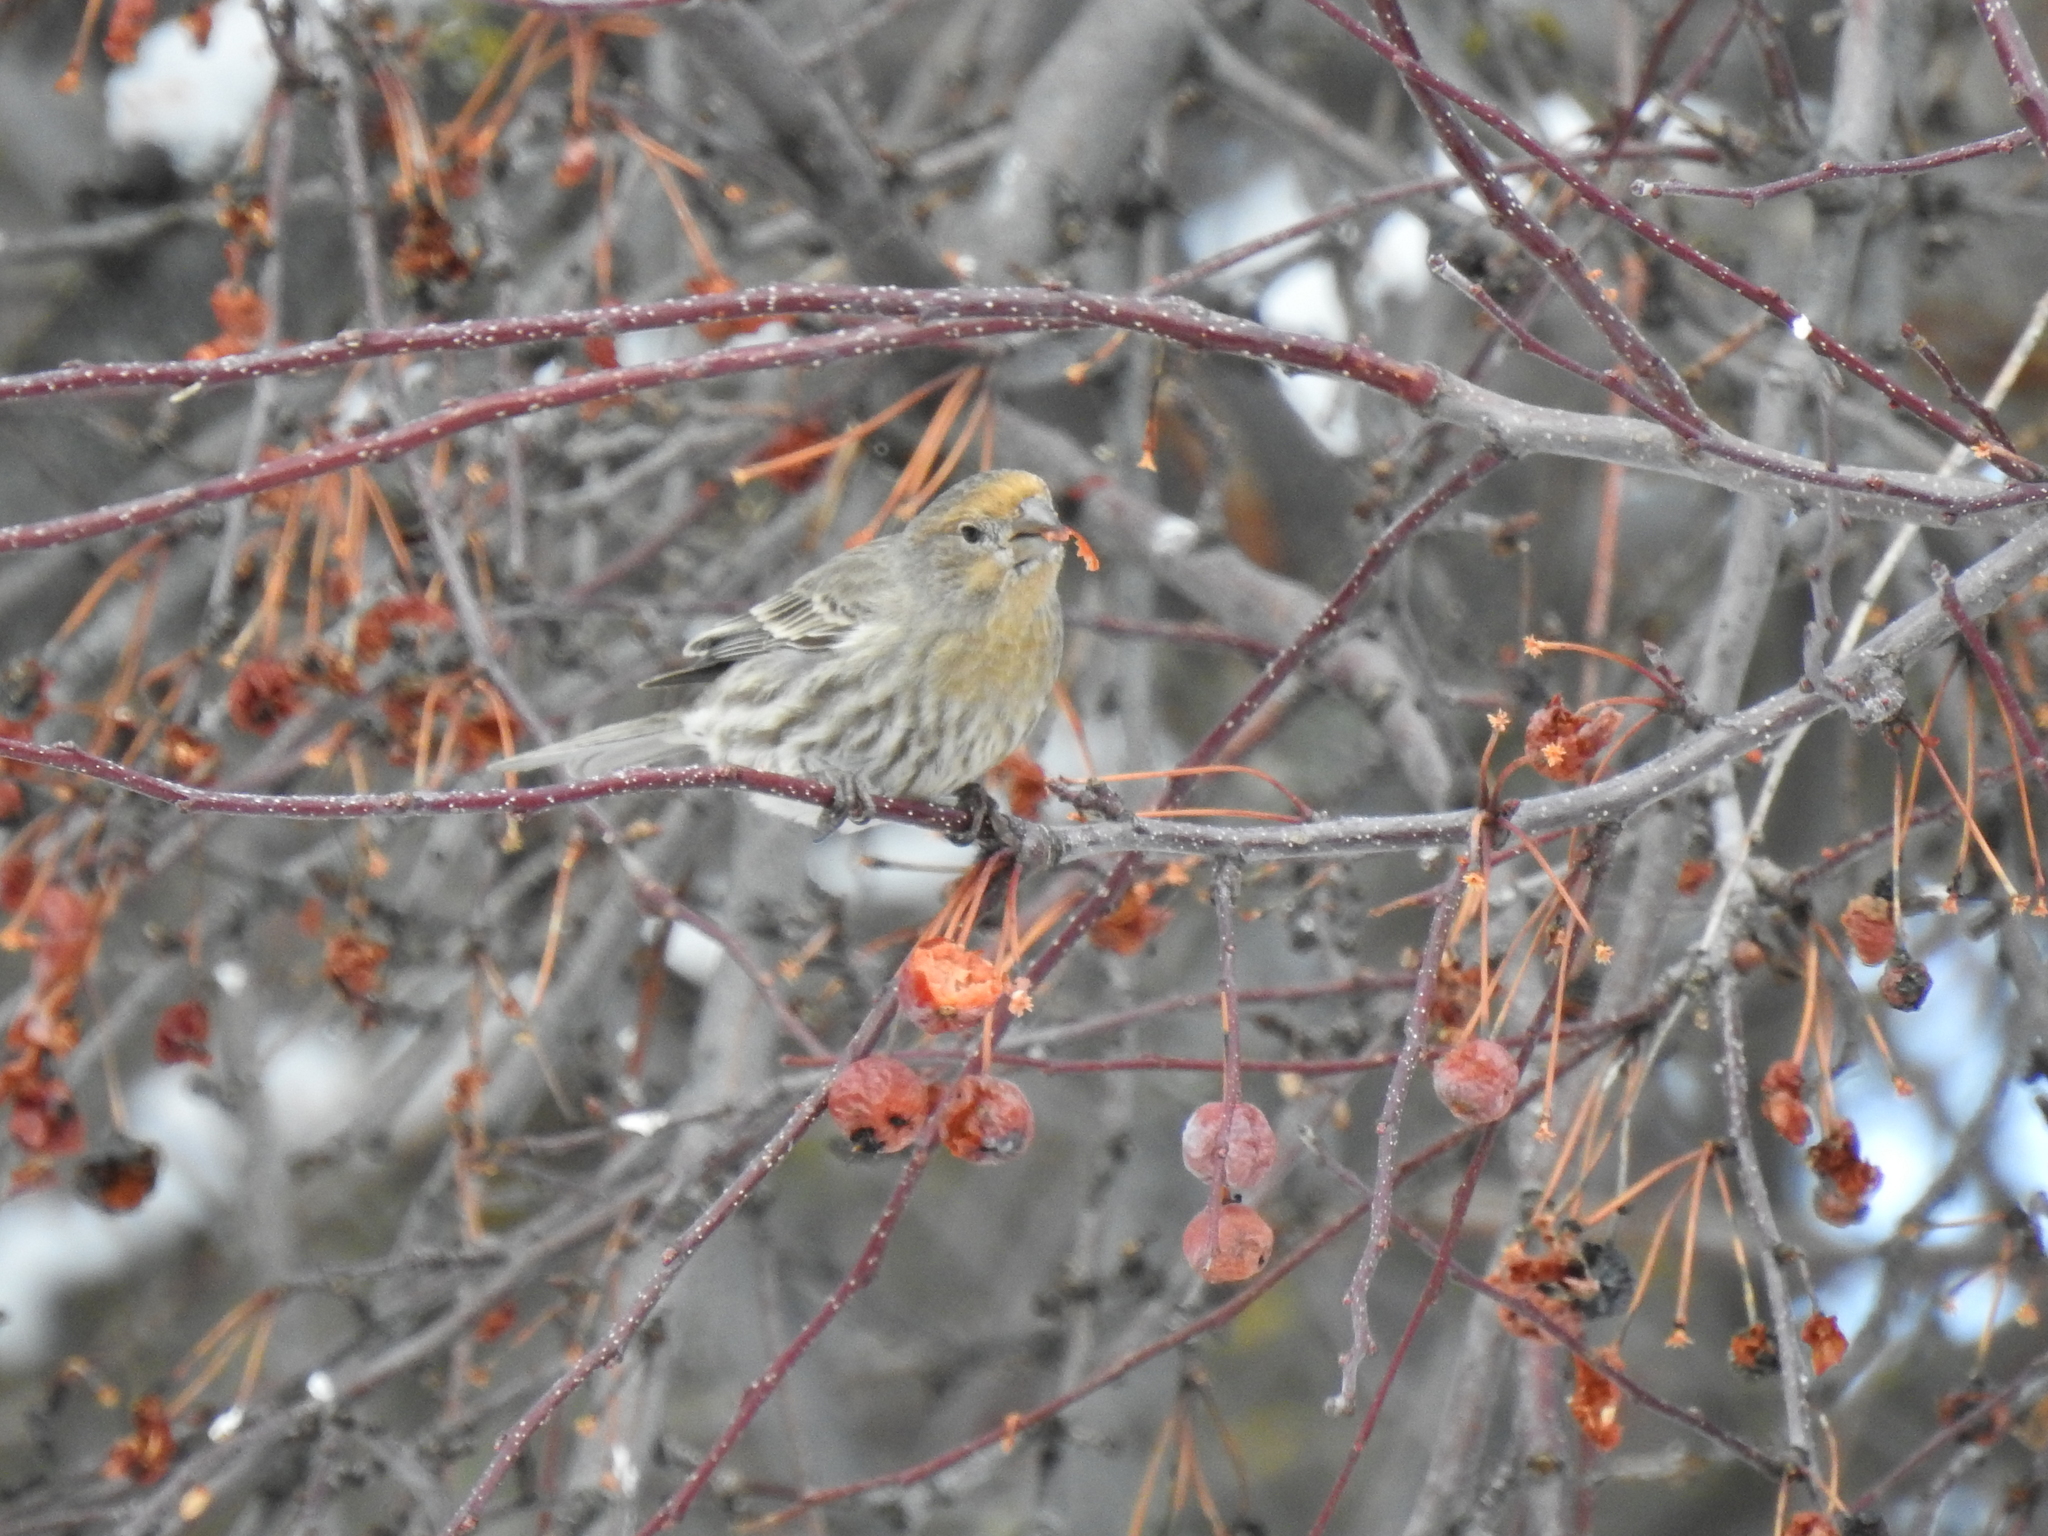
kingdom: Animalia
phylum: Chordata
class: Aves
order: Passeriformes
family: Fringillidae
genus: Haemorhous
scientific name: Haemorhous mexicanus
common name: House finch
